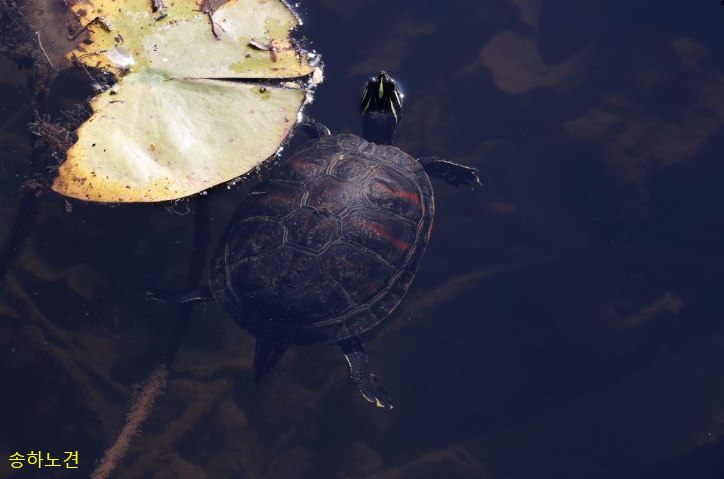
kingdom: Animalia
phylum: Chordata
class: Testudines
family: Emydidae
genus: Pseudemys
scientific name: Pseudemys nelsoni
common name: Florida red-bellied turtle
